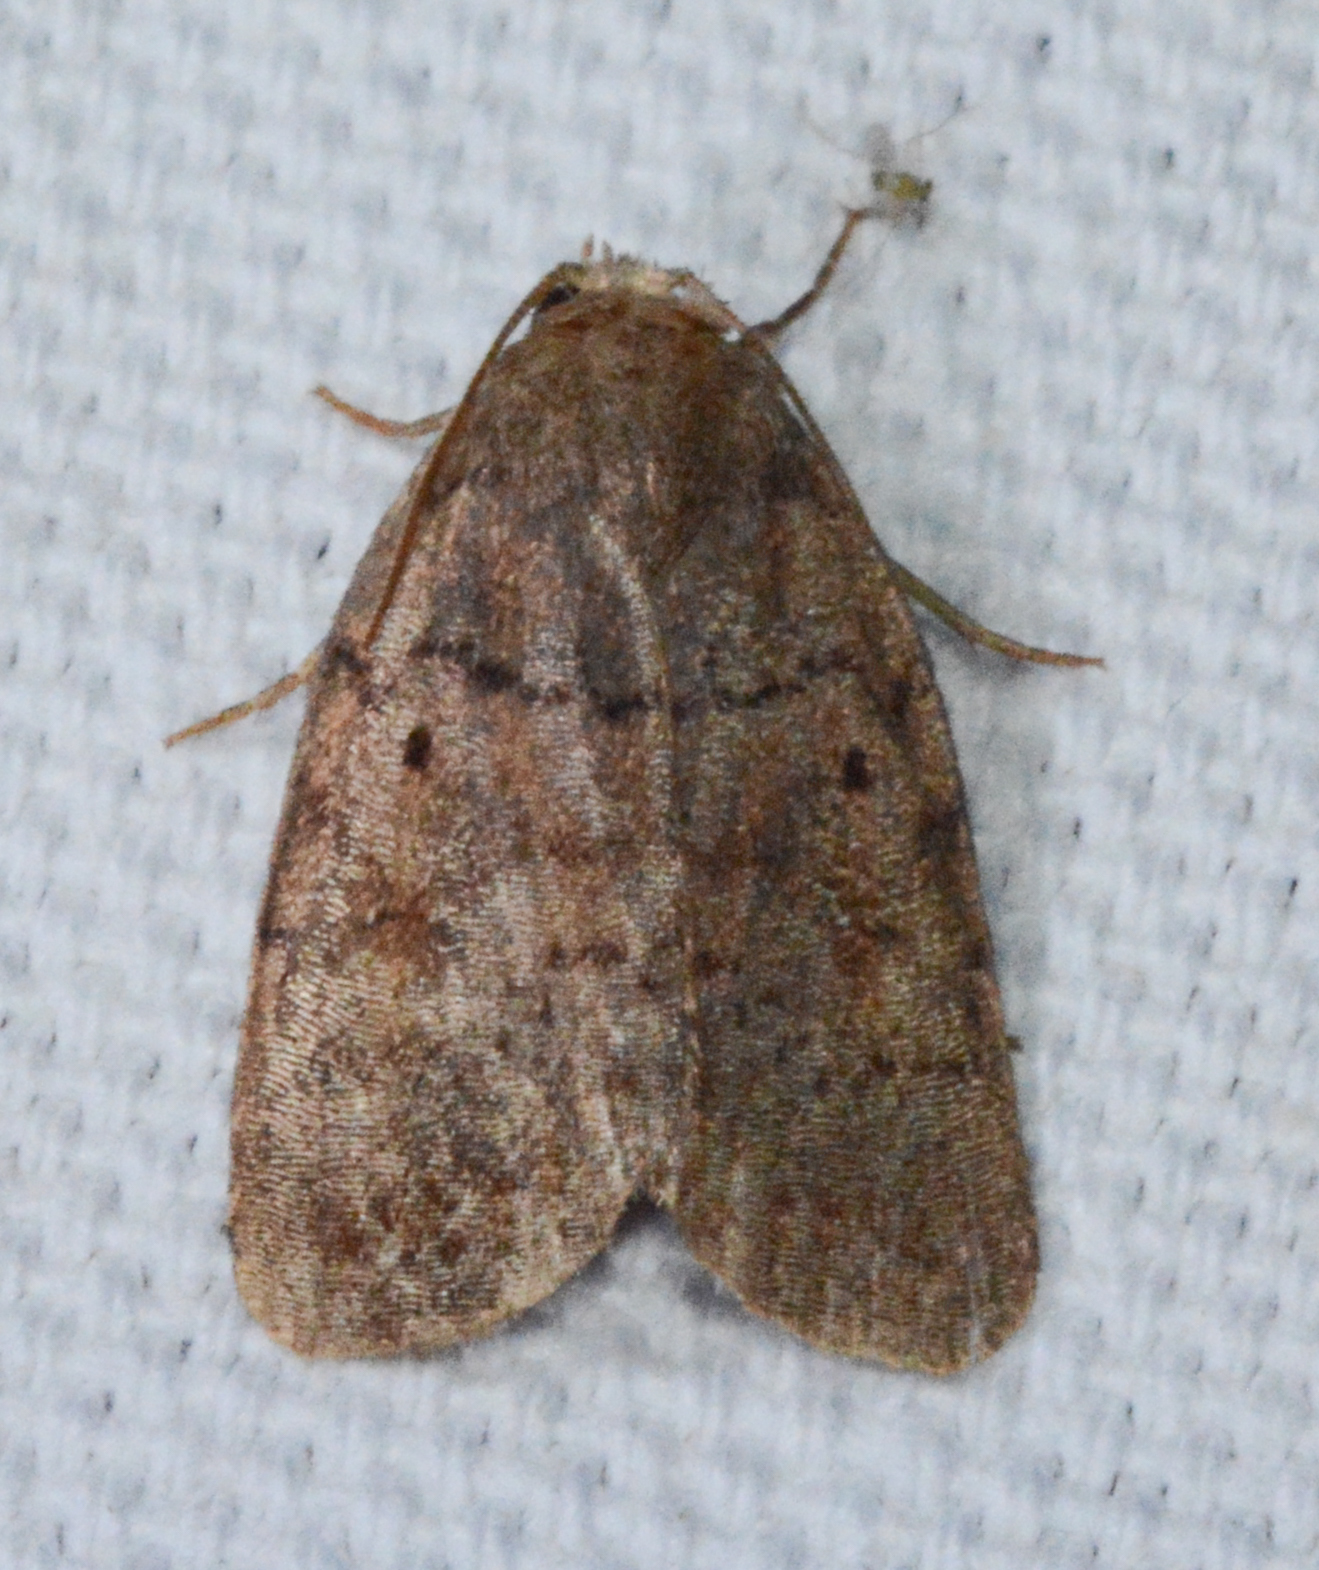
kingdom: Animalia
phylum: Arthropoda
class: Insecta
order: Lepidoptera
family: Noctuidae
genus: Athetis
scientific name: Athetis tarda
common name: Slowpoke moth
